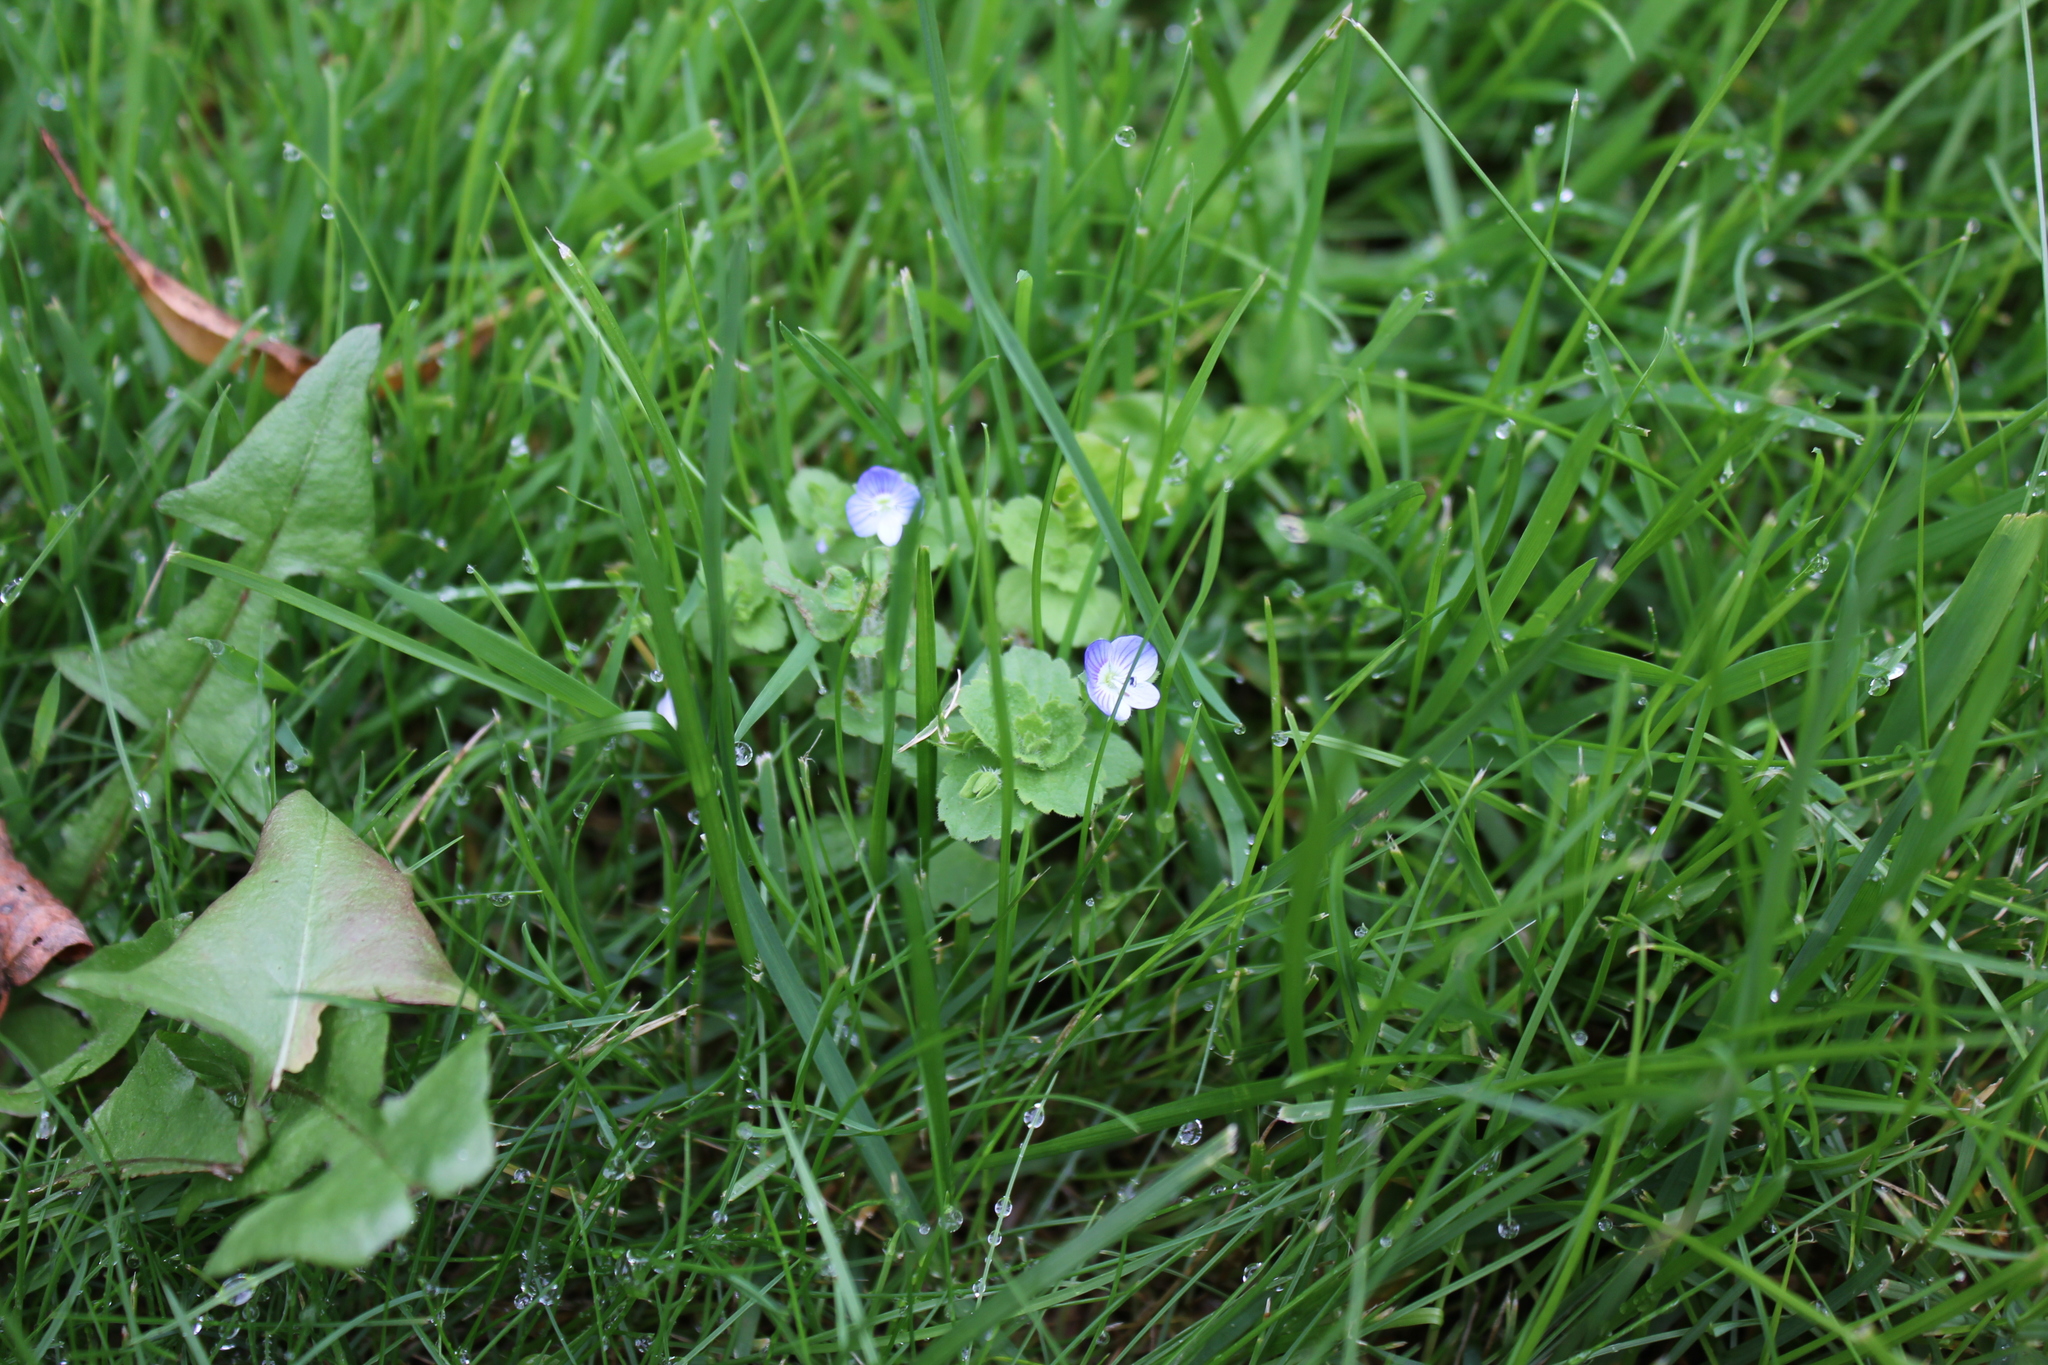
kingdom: Plantae
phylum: Tracheophyta
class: Magnoliopsida
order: Lamiales
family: Plantaginaceae
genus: Veronica
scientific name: Veronica persica
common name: Common field-speedwell
